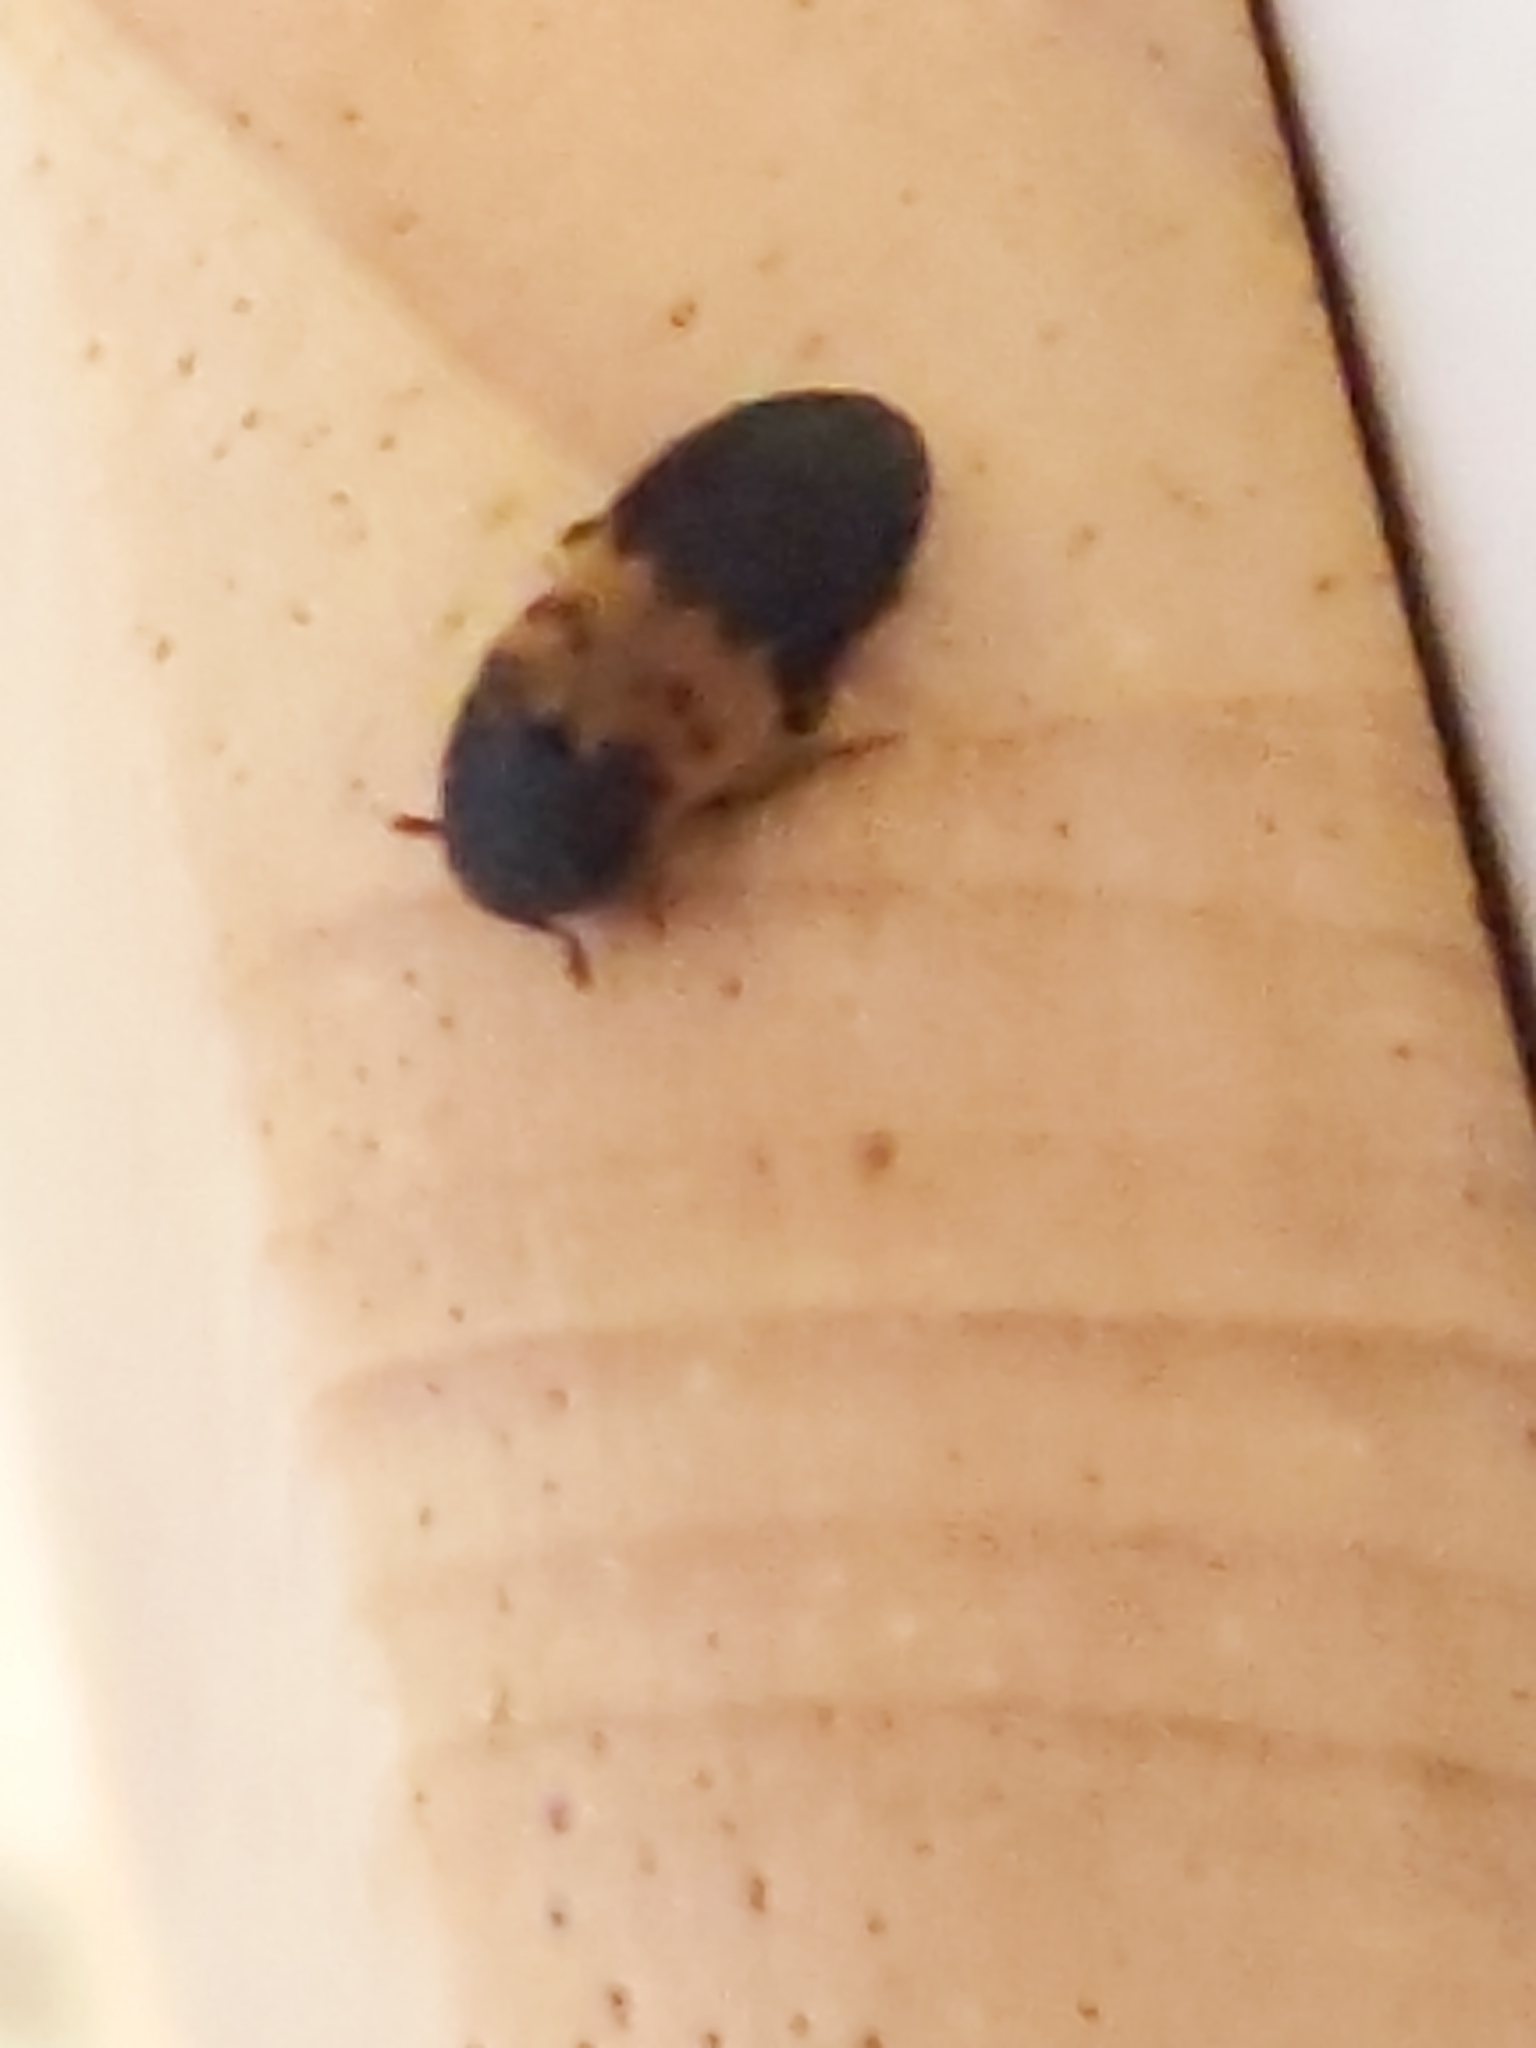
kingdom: Animalia
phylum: Arthropoda
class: Insecta
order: Coleoptera
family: Dermestidae
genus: Dermestes
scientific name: Dermestes lardarius
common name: Larder beetle
